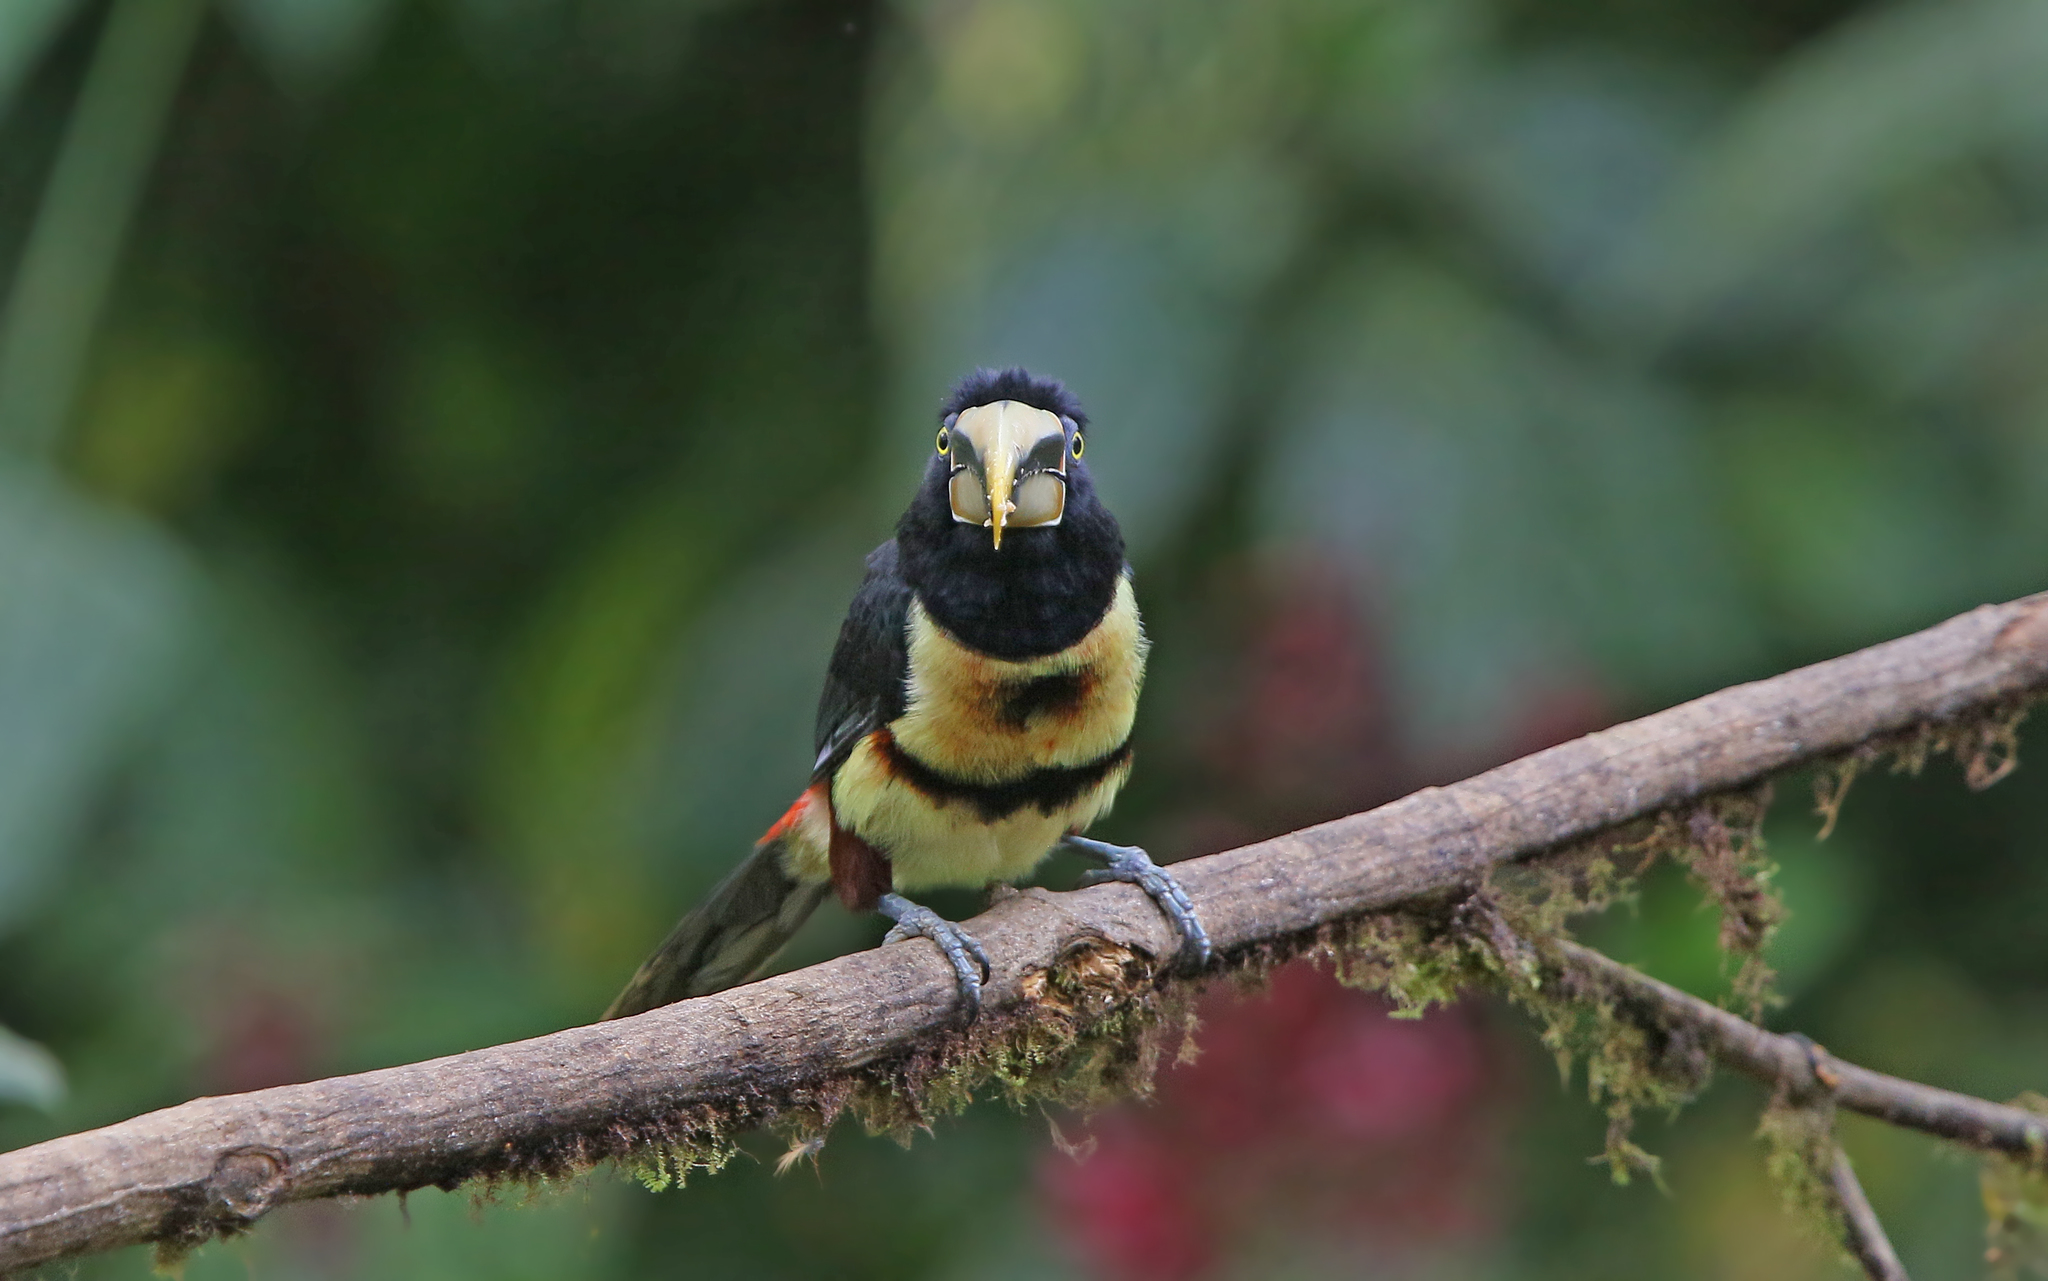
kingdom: Animalia
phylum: Chordata
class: Aves
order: Piciformes
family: Ramphastidae
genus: Pteroglossus
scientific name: Pteroglossus torquatus
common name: Collared aracari
